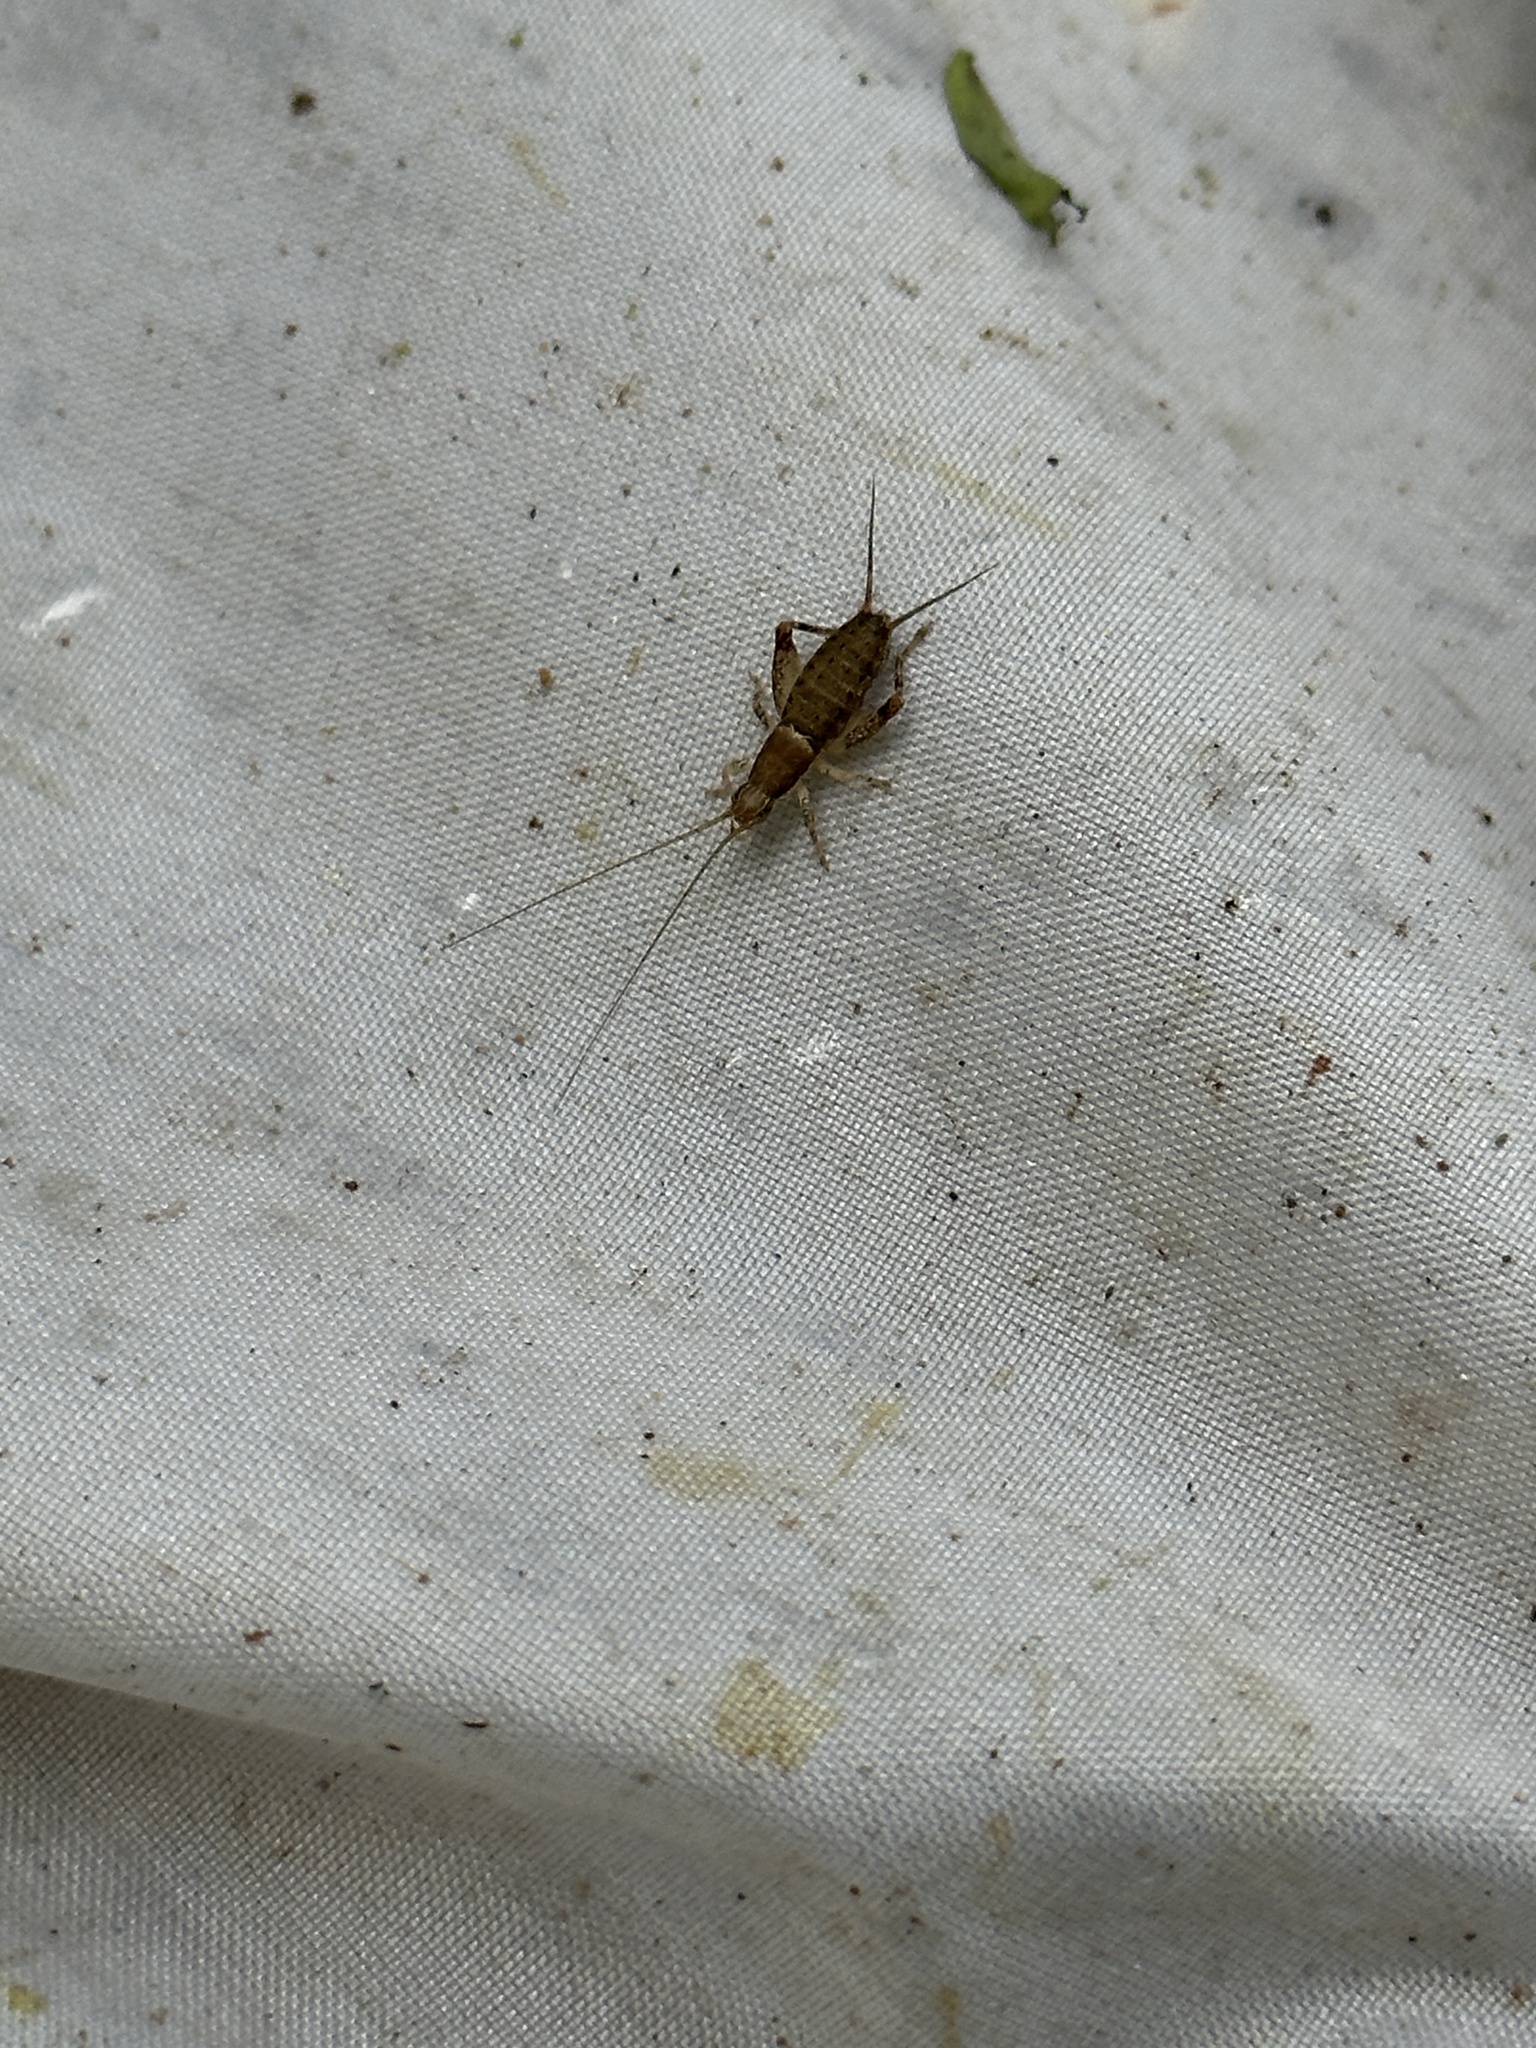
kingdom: Animalia
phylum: Arthropoda
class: Insecta
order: Orthoptera
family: Mogoplistidae
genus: Ornebius
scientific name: Ornebius bimaculatus
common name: Cricket
